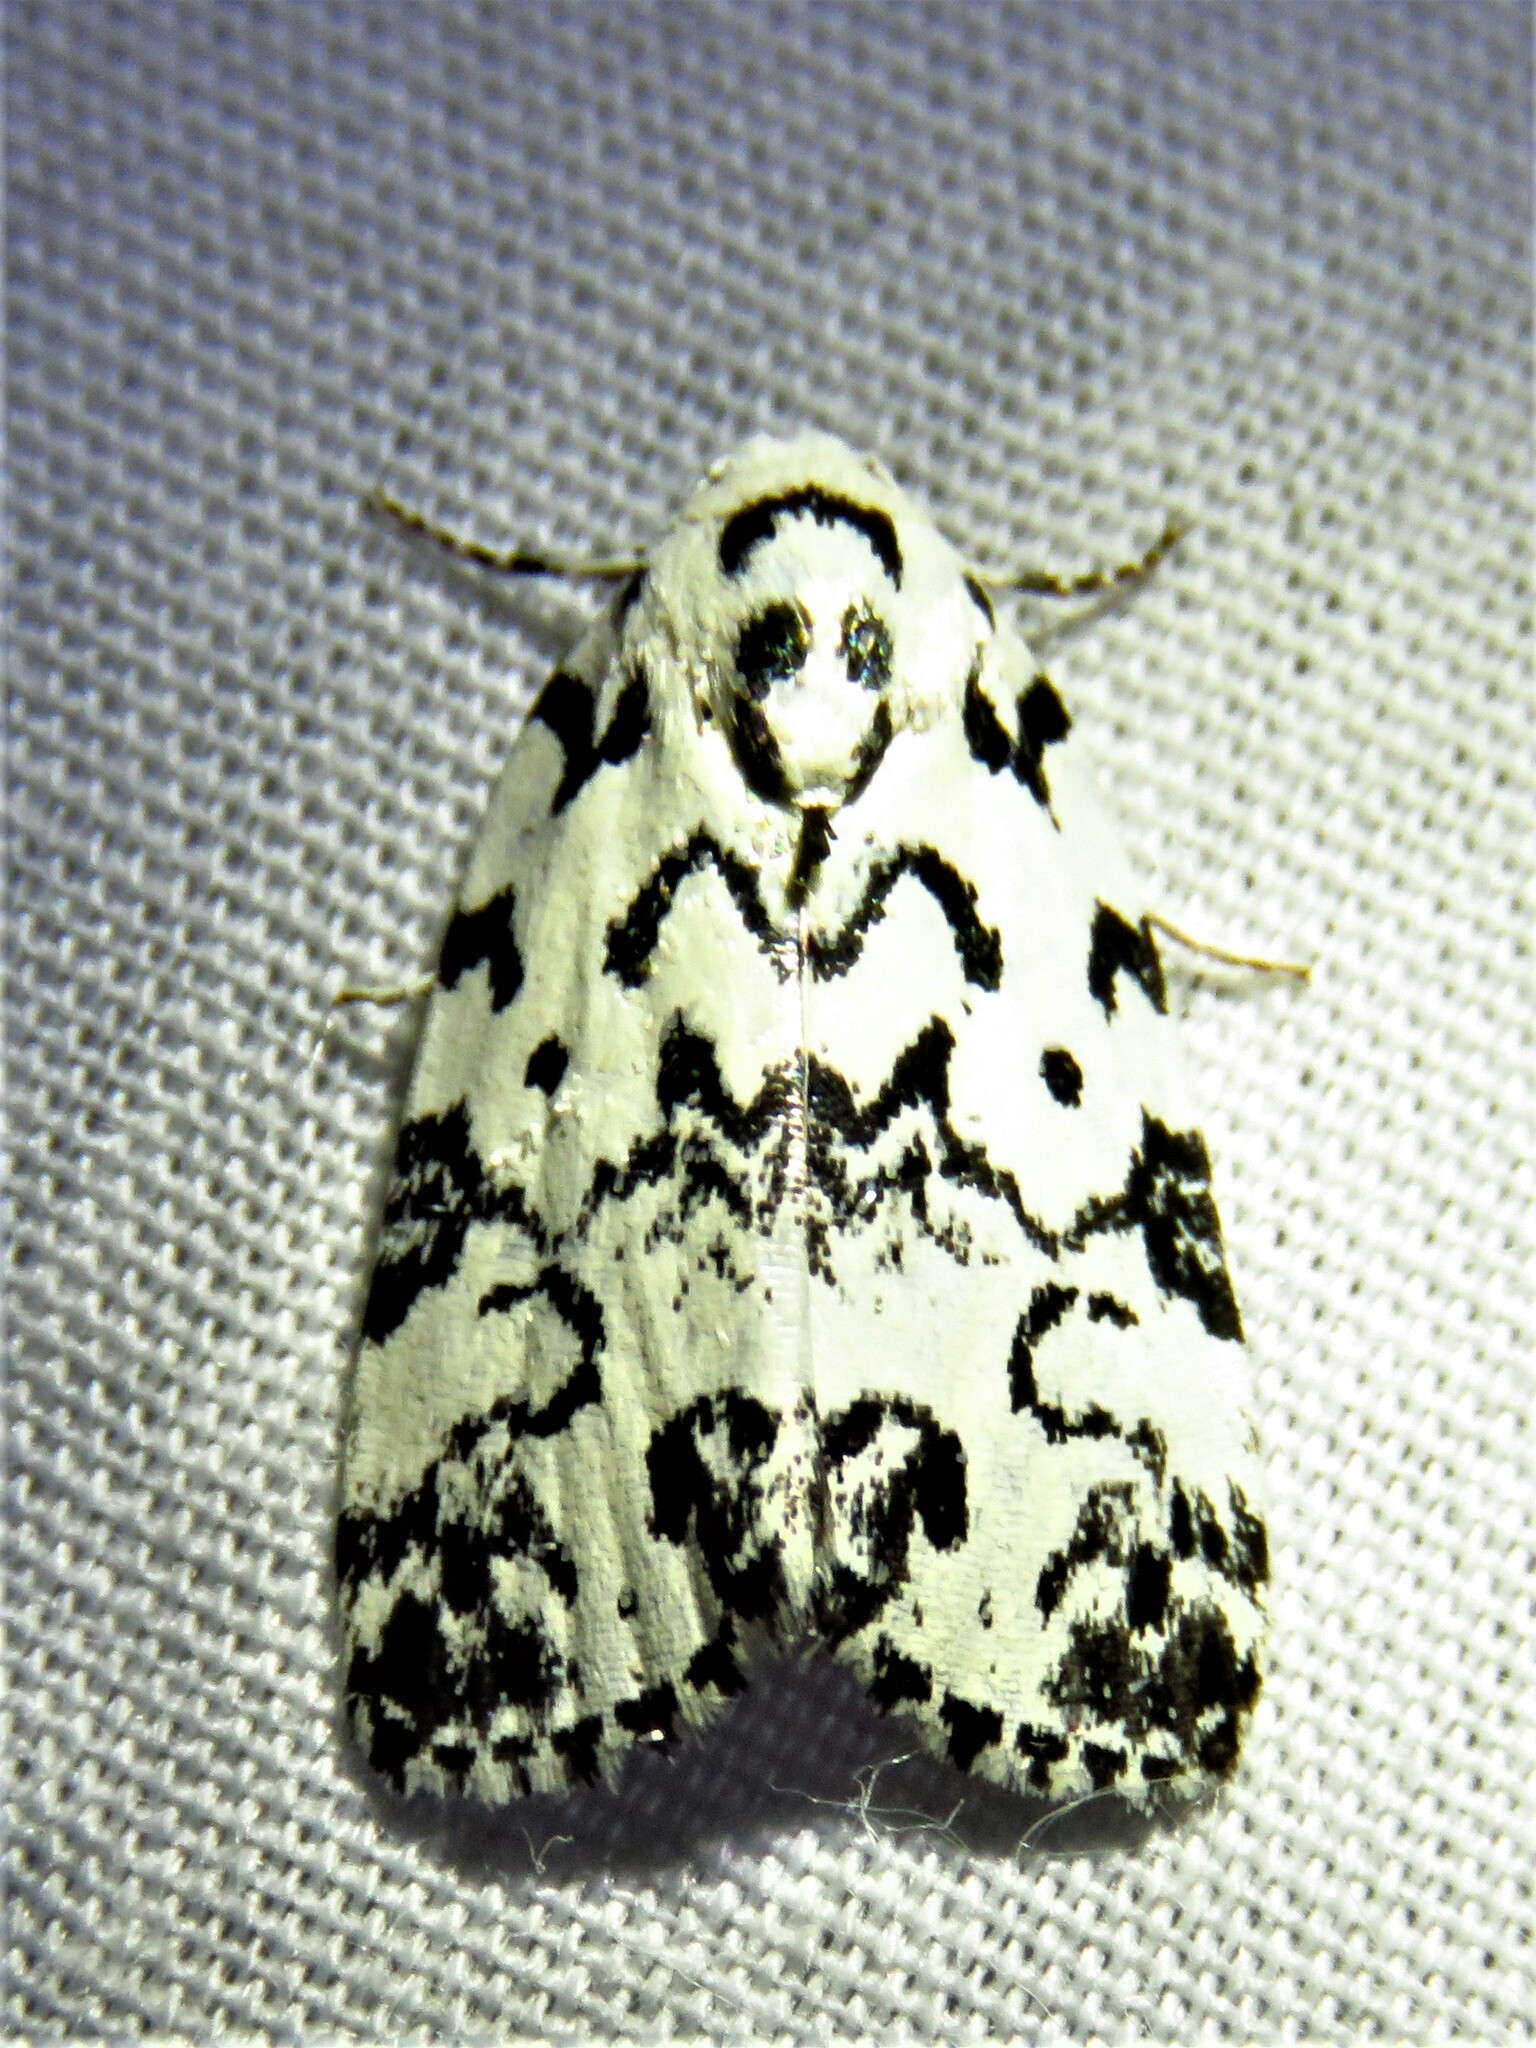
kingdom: Animalia
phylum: Arthropoda
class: Insecta
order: Lepidoptera
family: Noctuidae
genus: Polygrammate
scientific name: Polygrammate hebraeicum
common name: Hebrew moth
